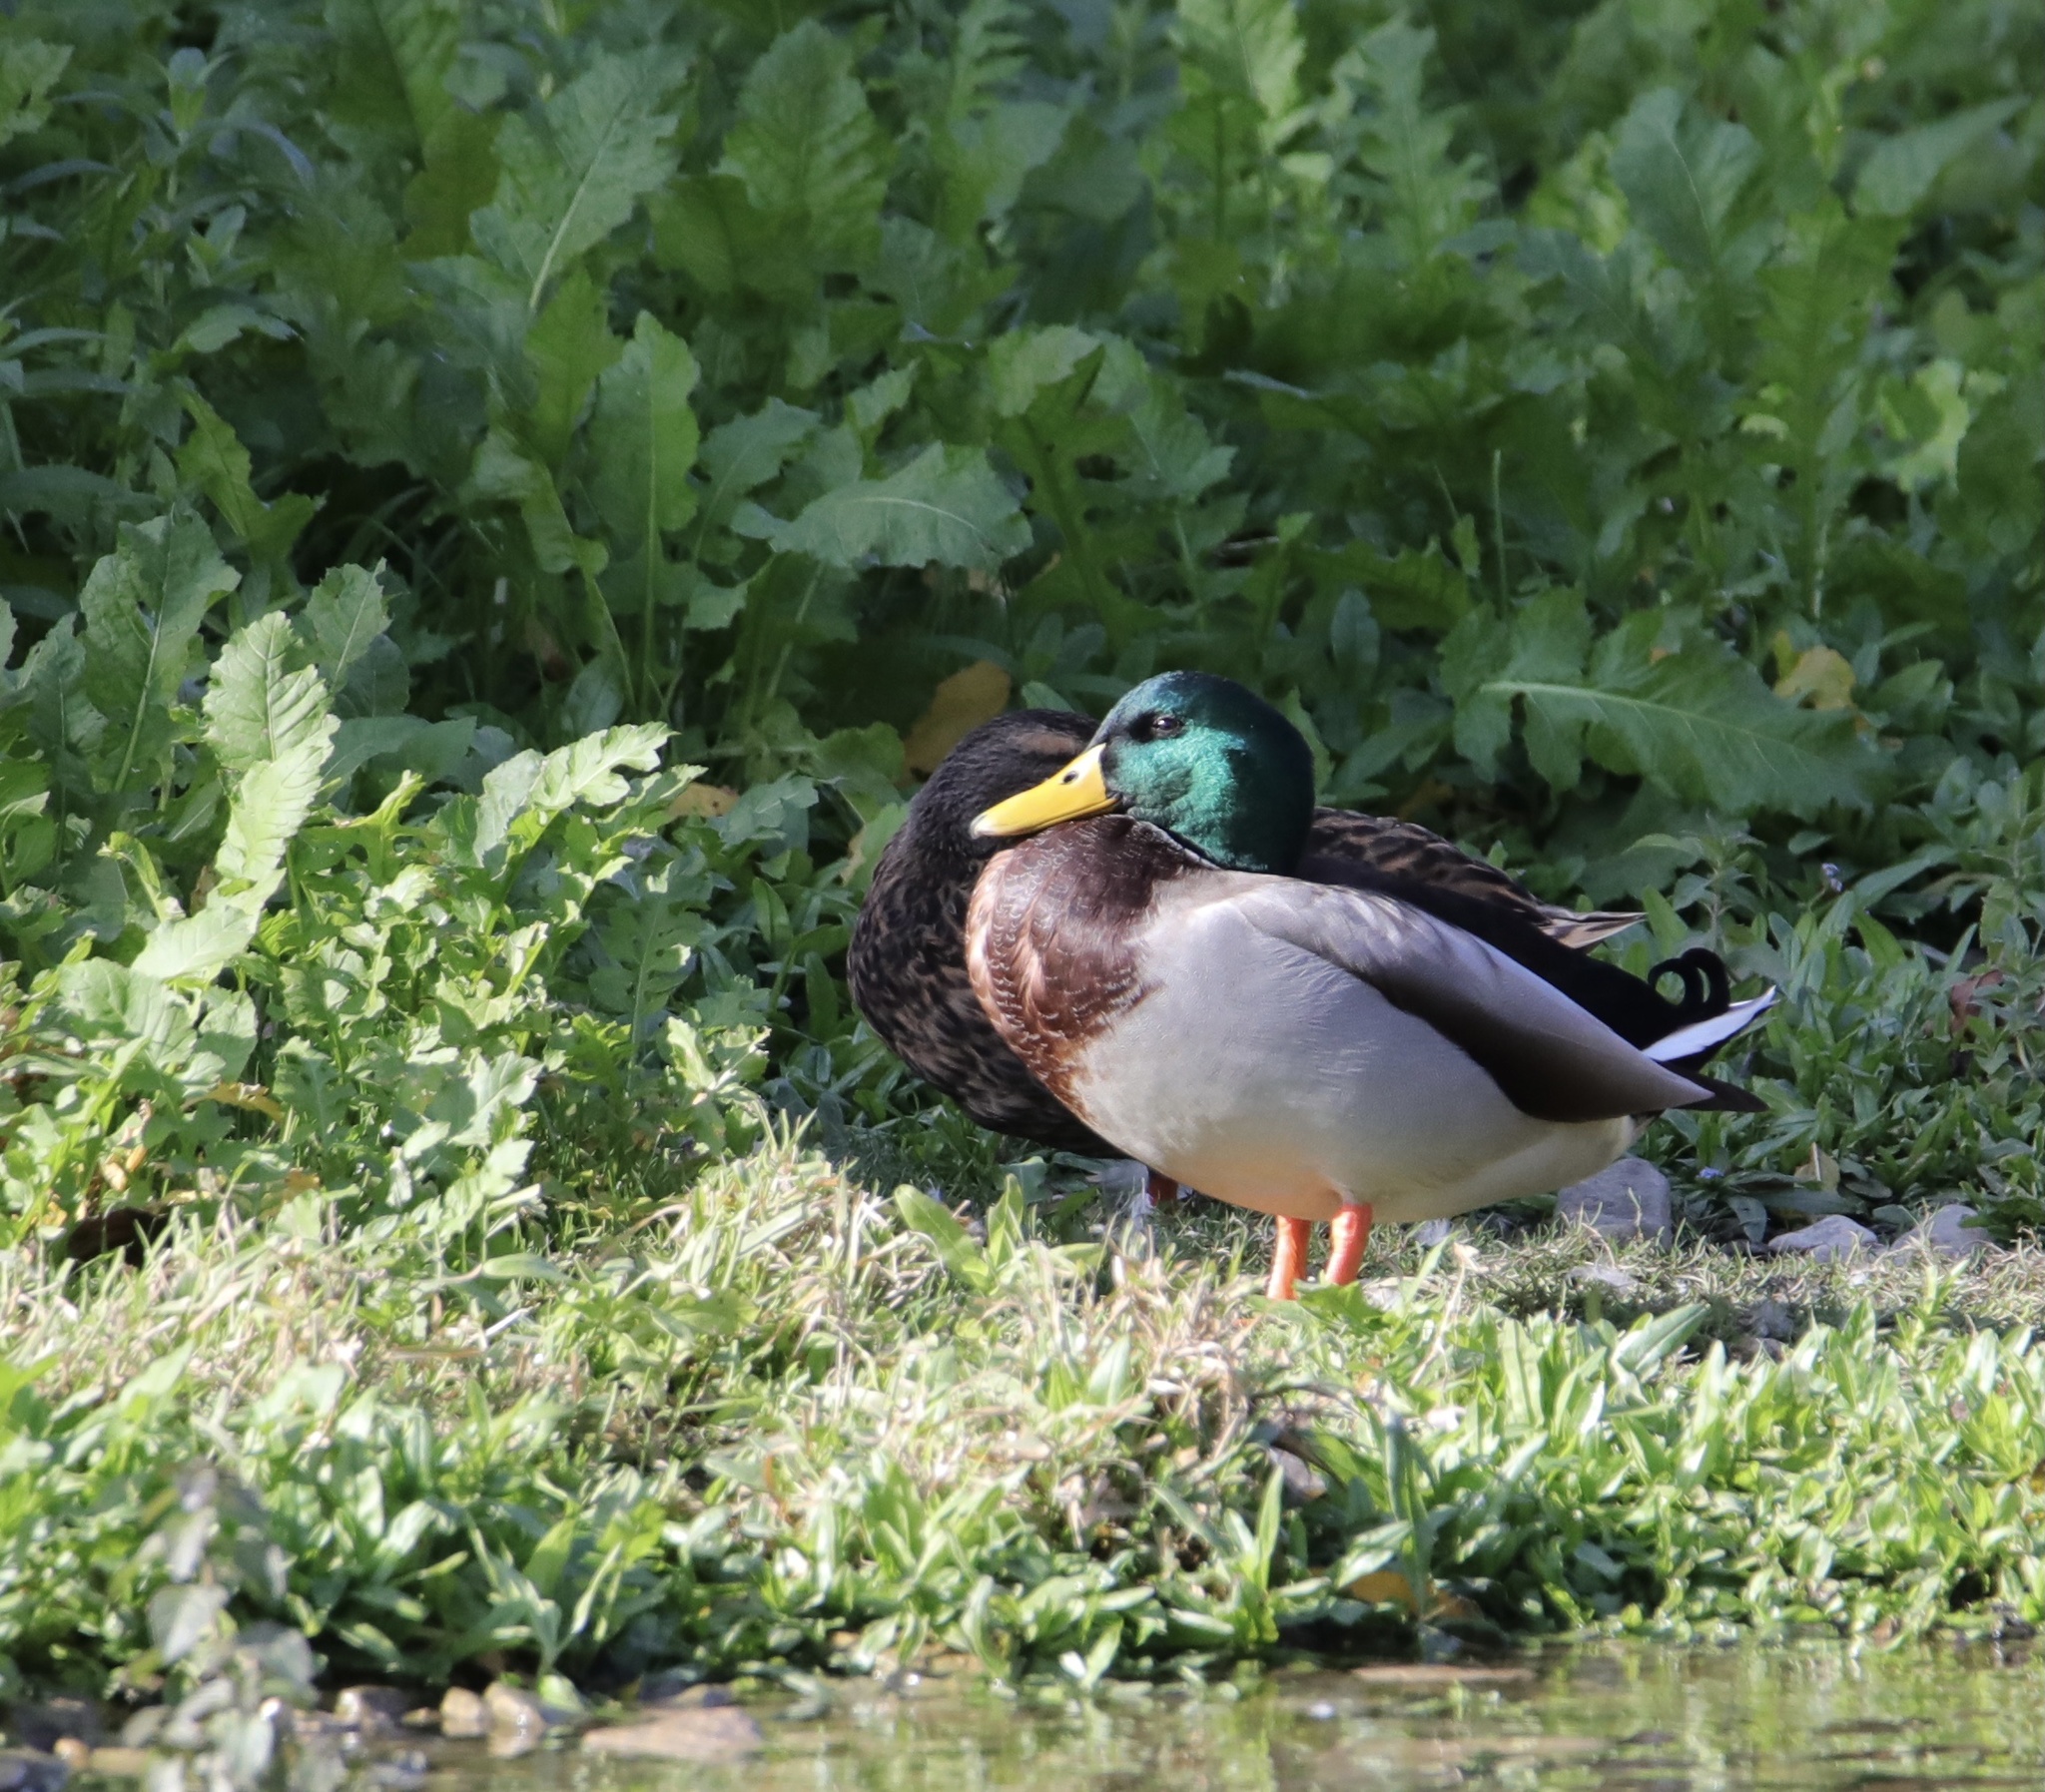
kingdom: Animalia
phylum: Chordata
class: Aves
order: Anseriformes
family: Anatidae
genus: Anas
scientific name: Anas platyrhynchos
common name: Mallard
